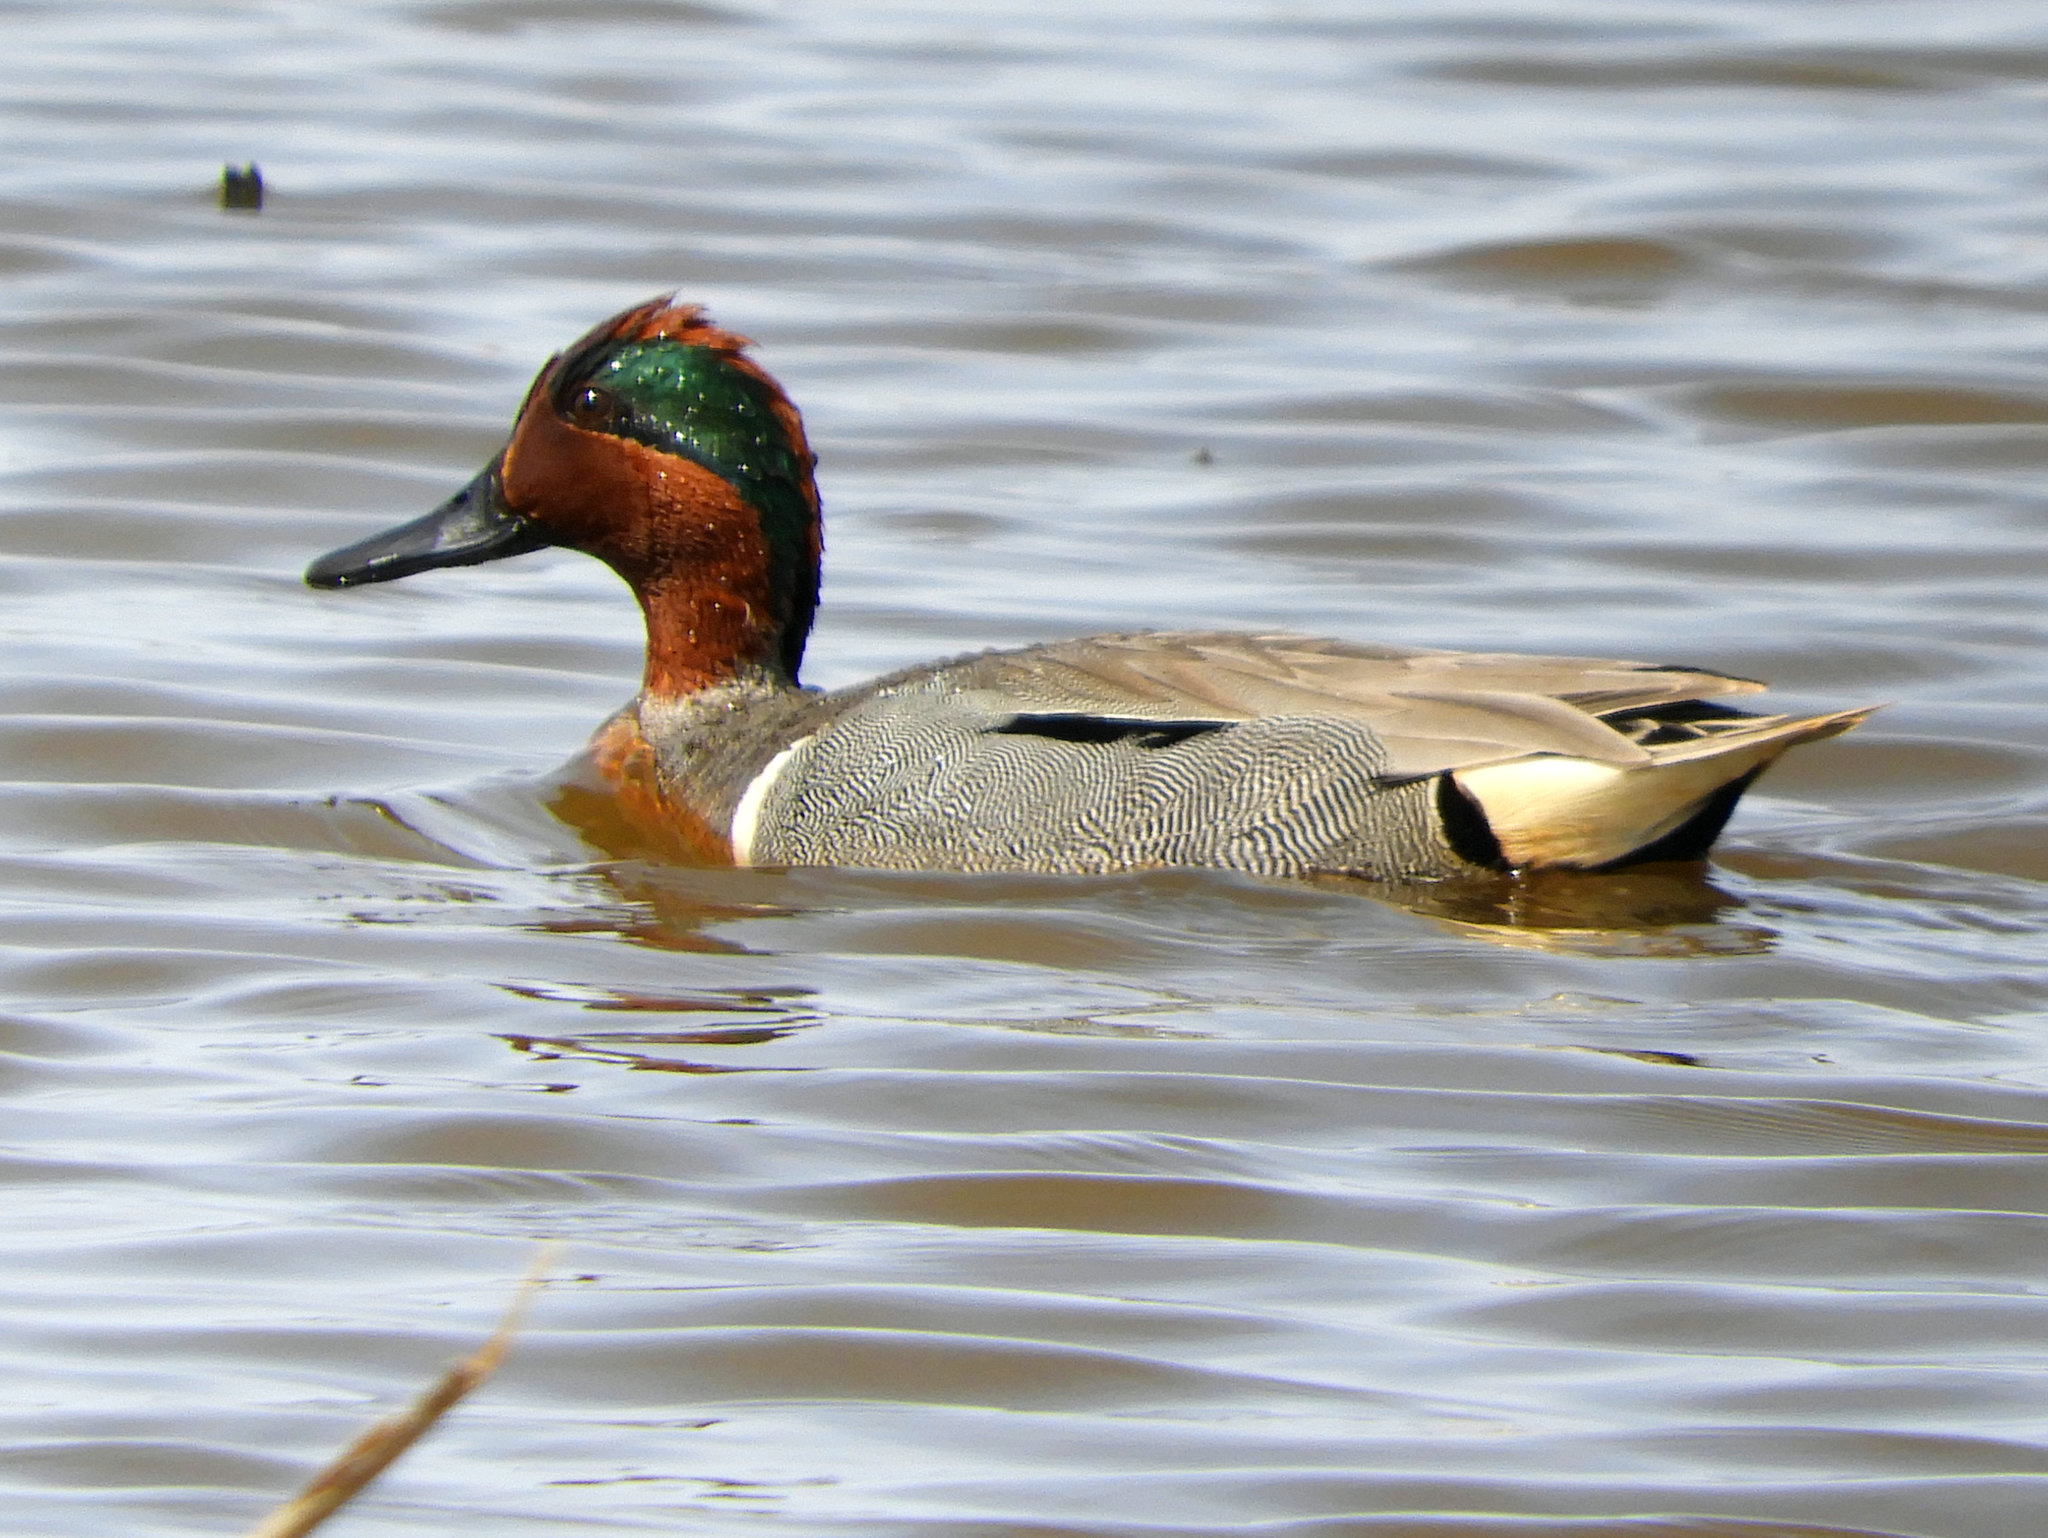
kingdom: Animalia
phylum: Chordata
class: Aves
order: Anseriformes
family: Anatidae
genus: Anas
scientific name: Anas crecca
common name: Eurasian teal
